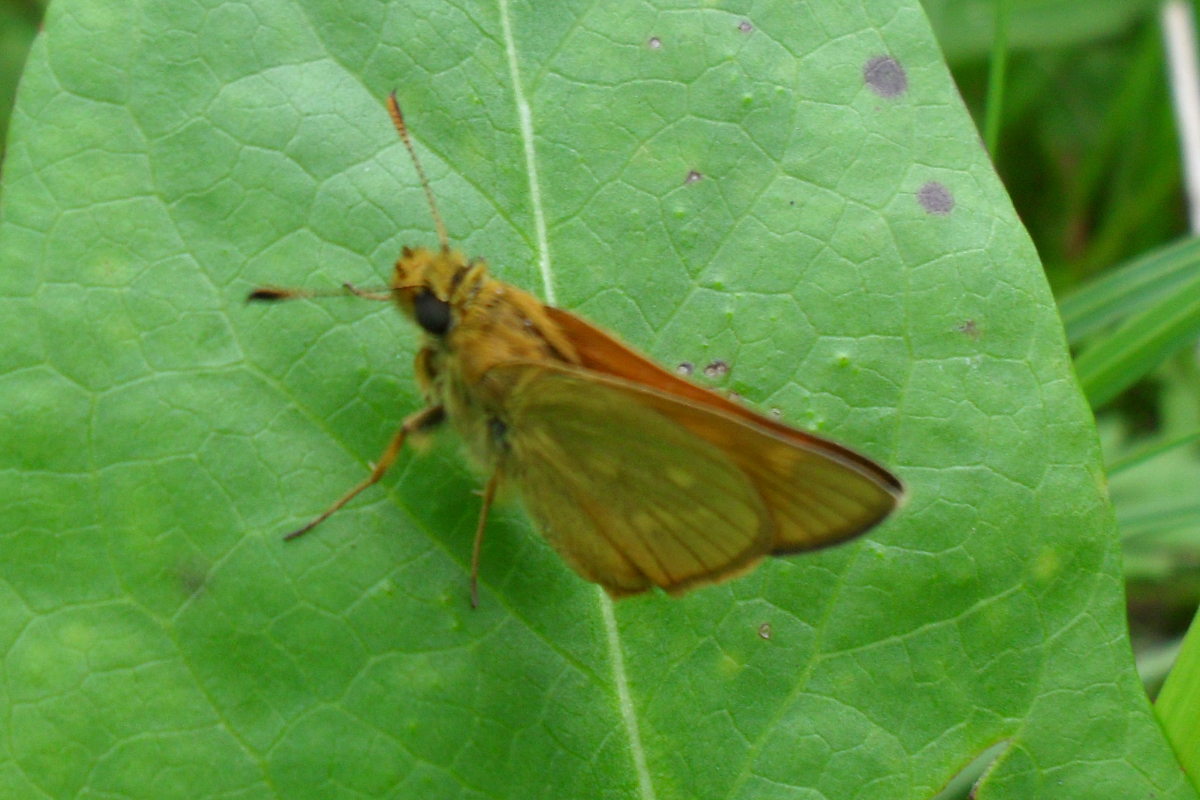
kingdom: Animalia
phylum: Arthropoda
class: Insecta
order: Lepidoptera
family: Hesperiidae
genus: Ochlodes
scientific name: Ochlodes venata
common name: Large skipper
